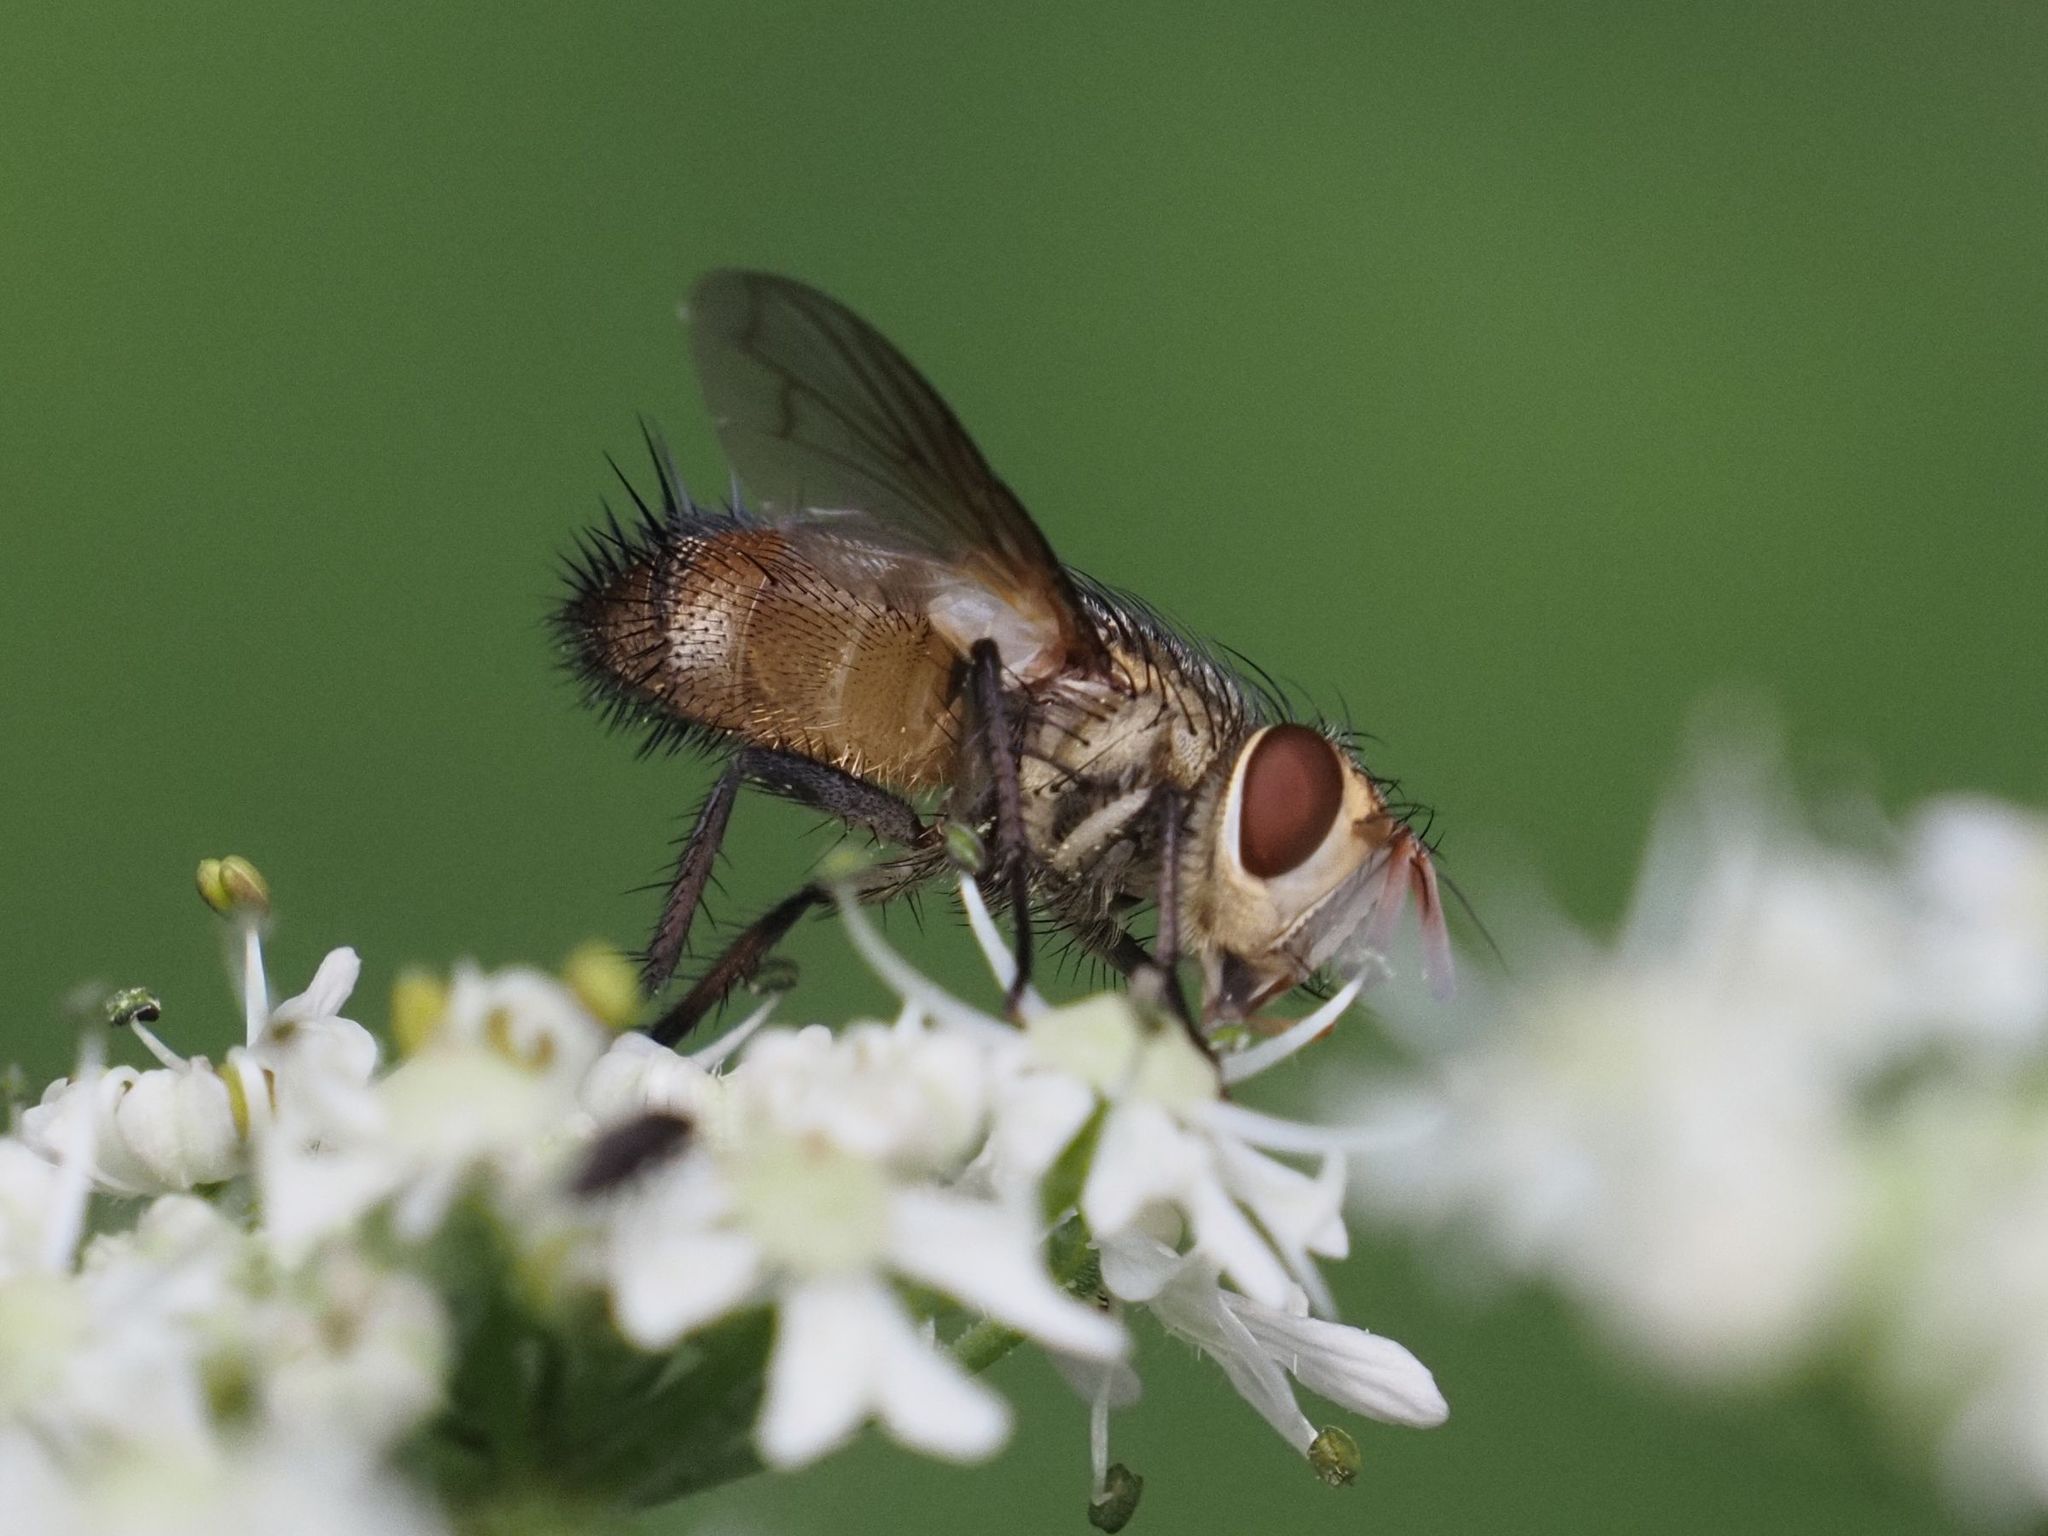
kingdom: Animalia
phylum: Arthropoda
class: Insecta
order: Diptera
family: Tachinidae
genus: Frontina
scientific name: Frontina laeta
